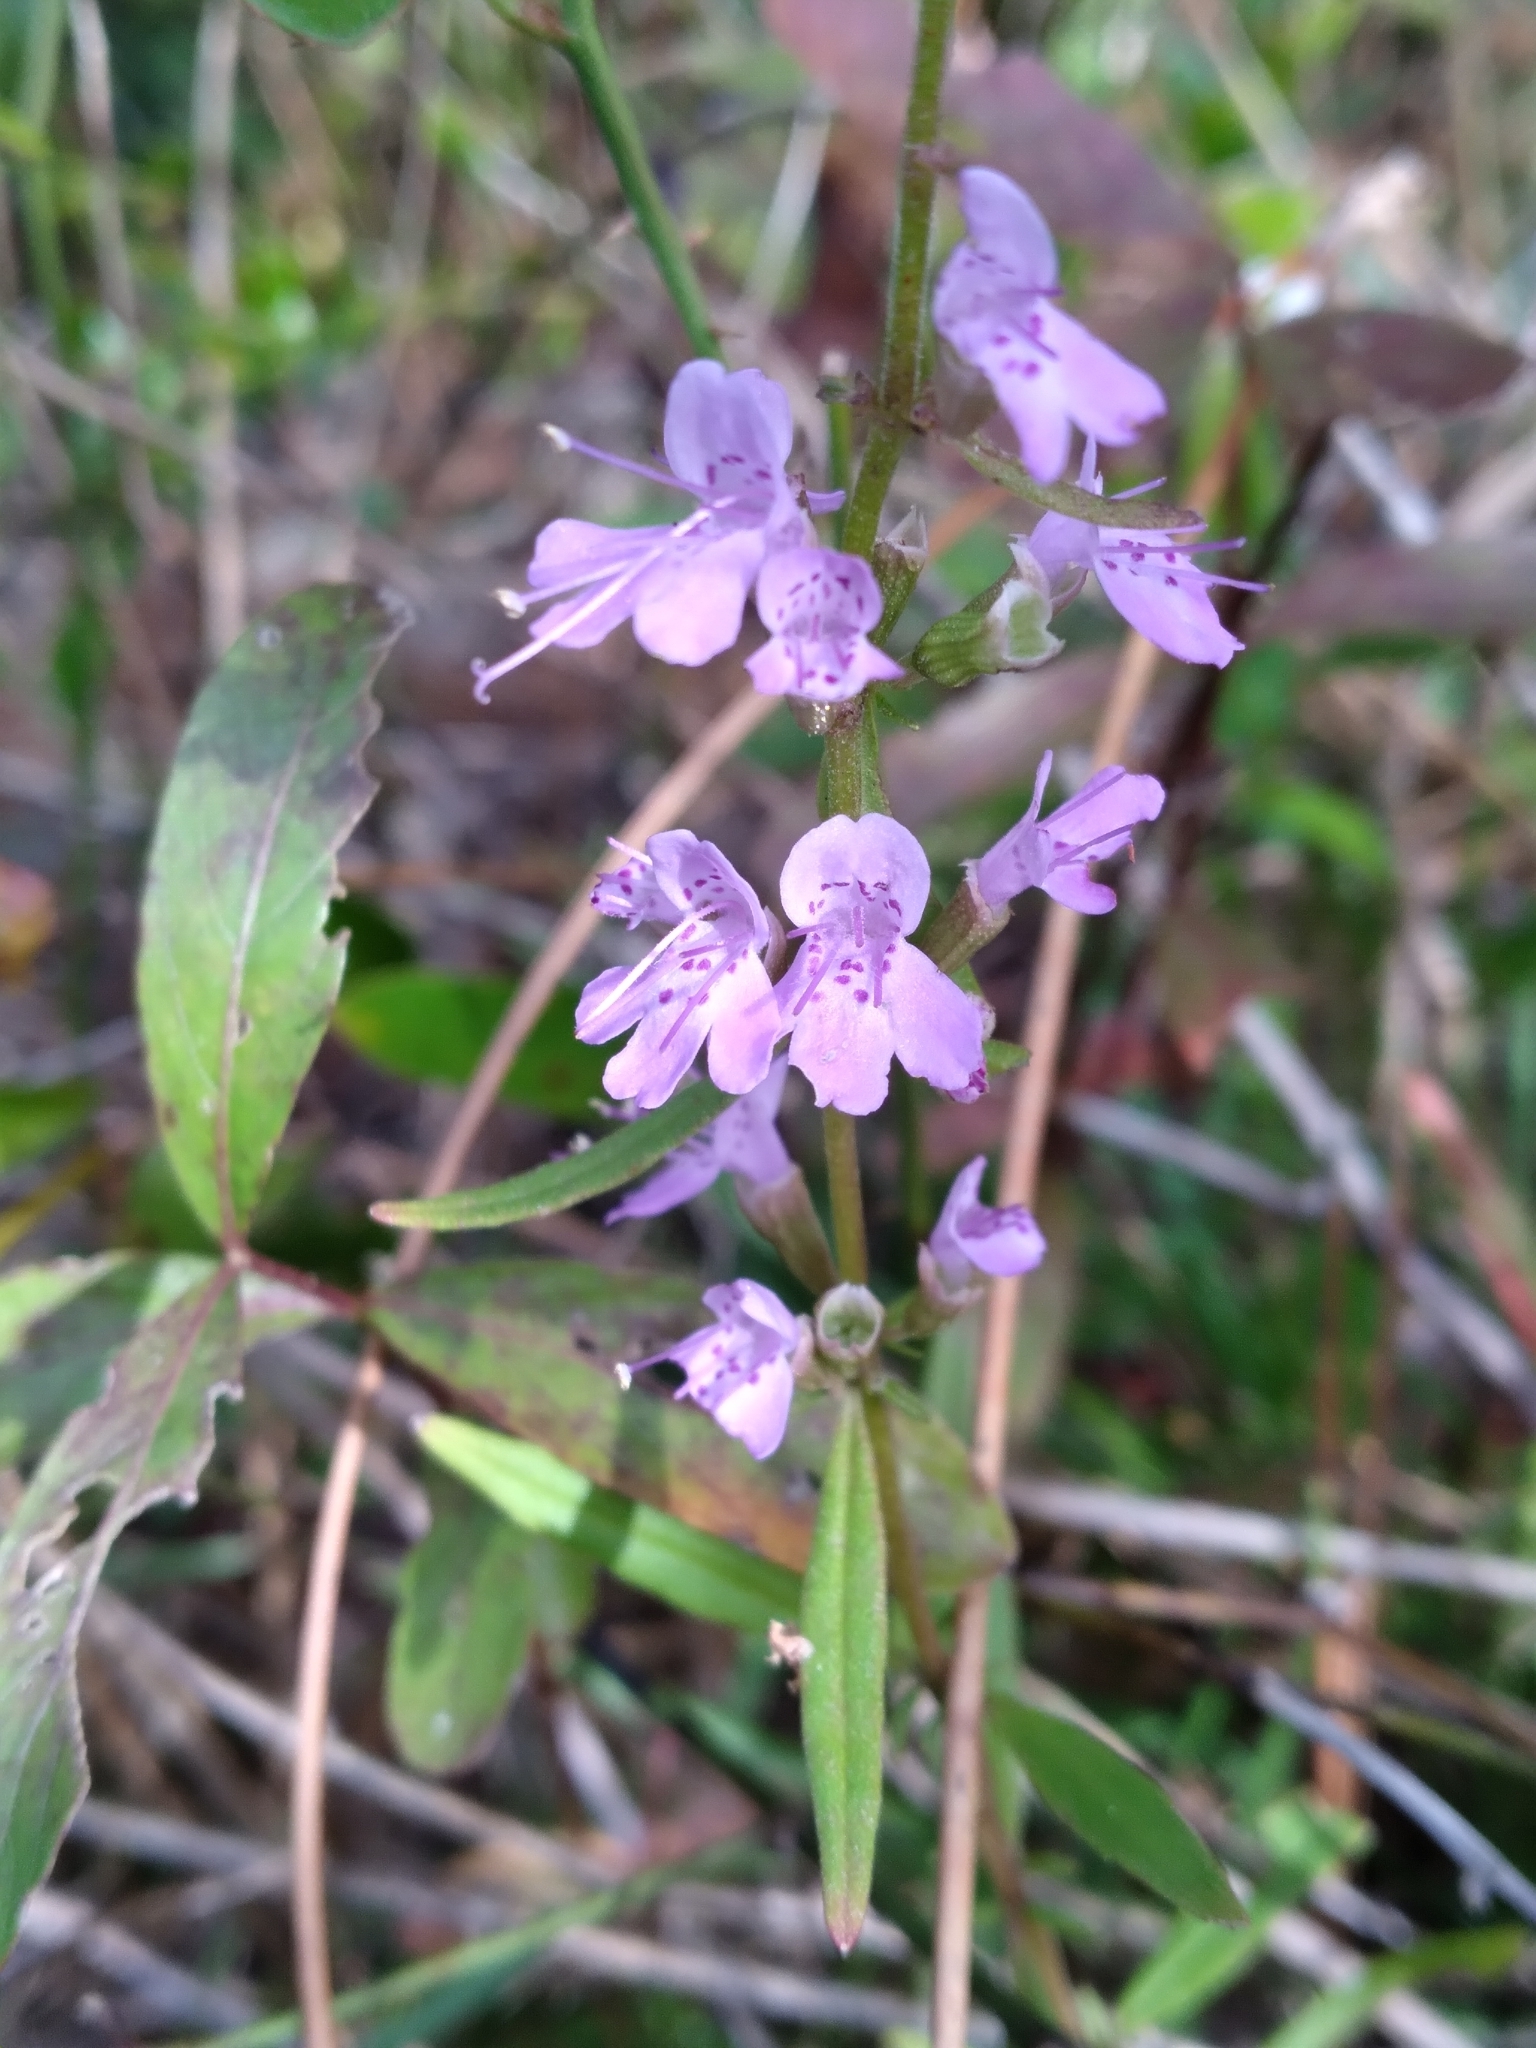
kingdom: Plantae
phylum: Tracheophyta
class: Magnoliopsida
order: Lamiales
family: Lamiaceae
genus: Dicerandra
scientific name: Dicerandra densiflora
